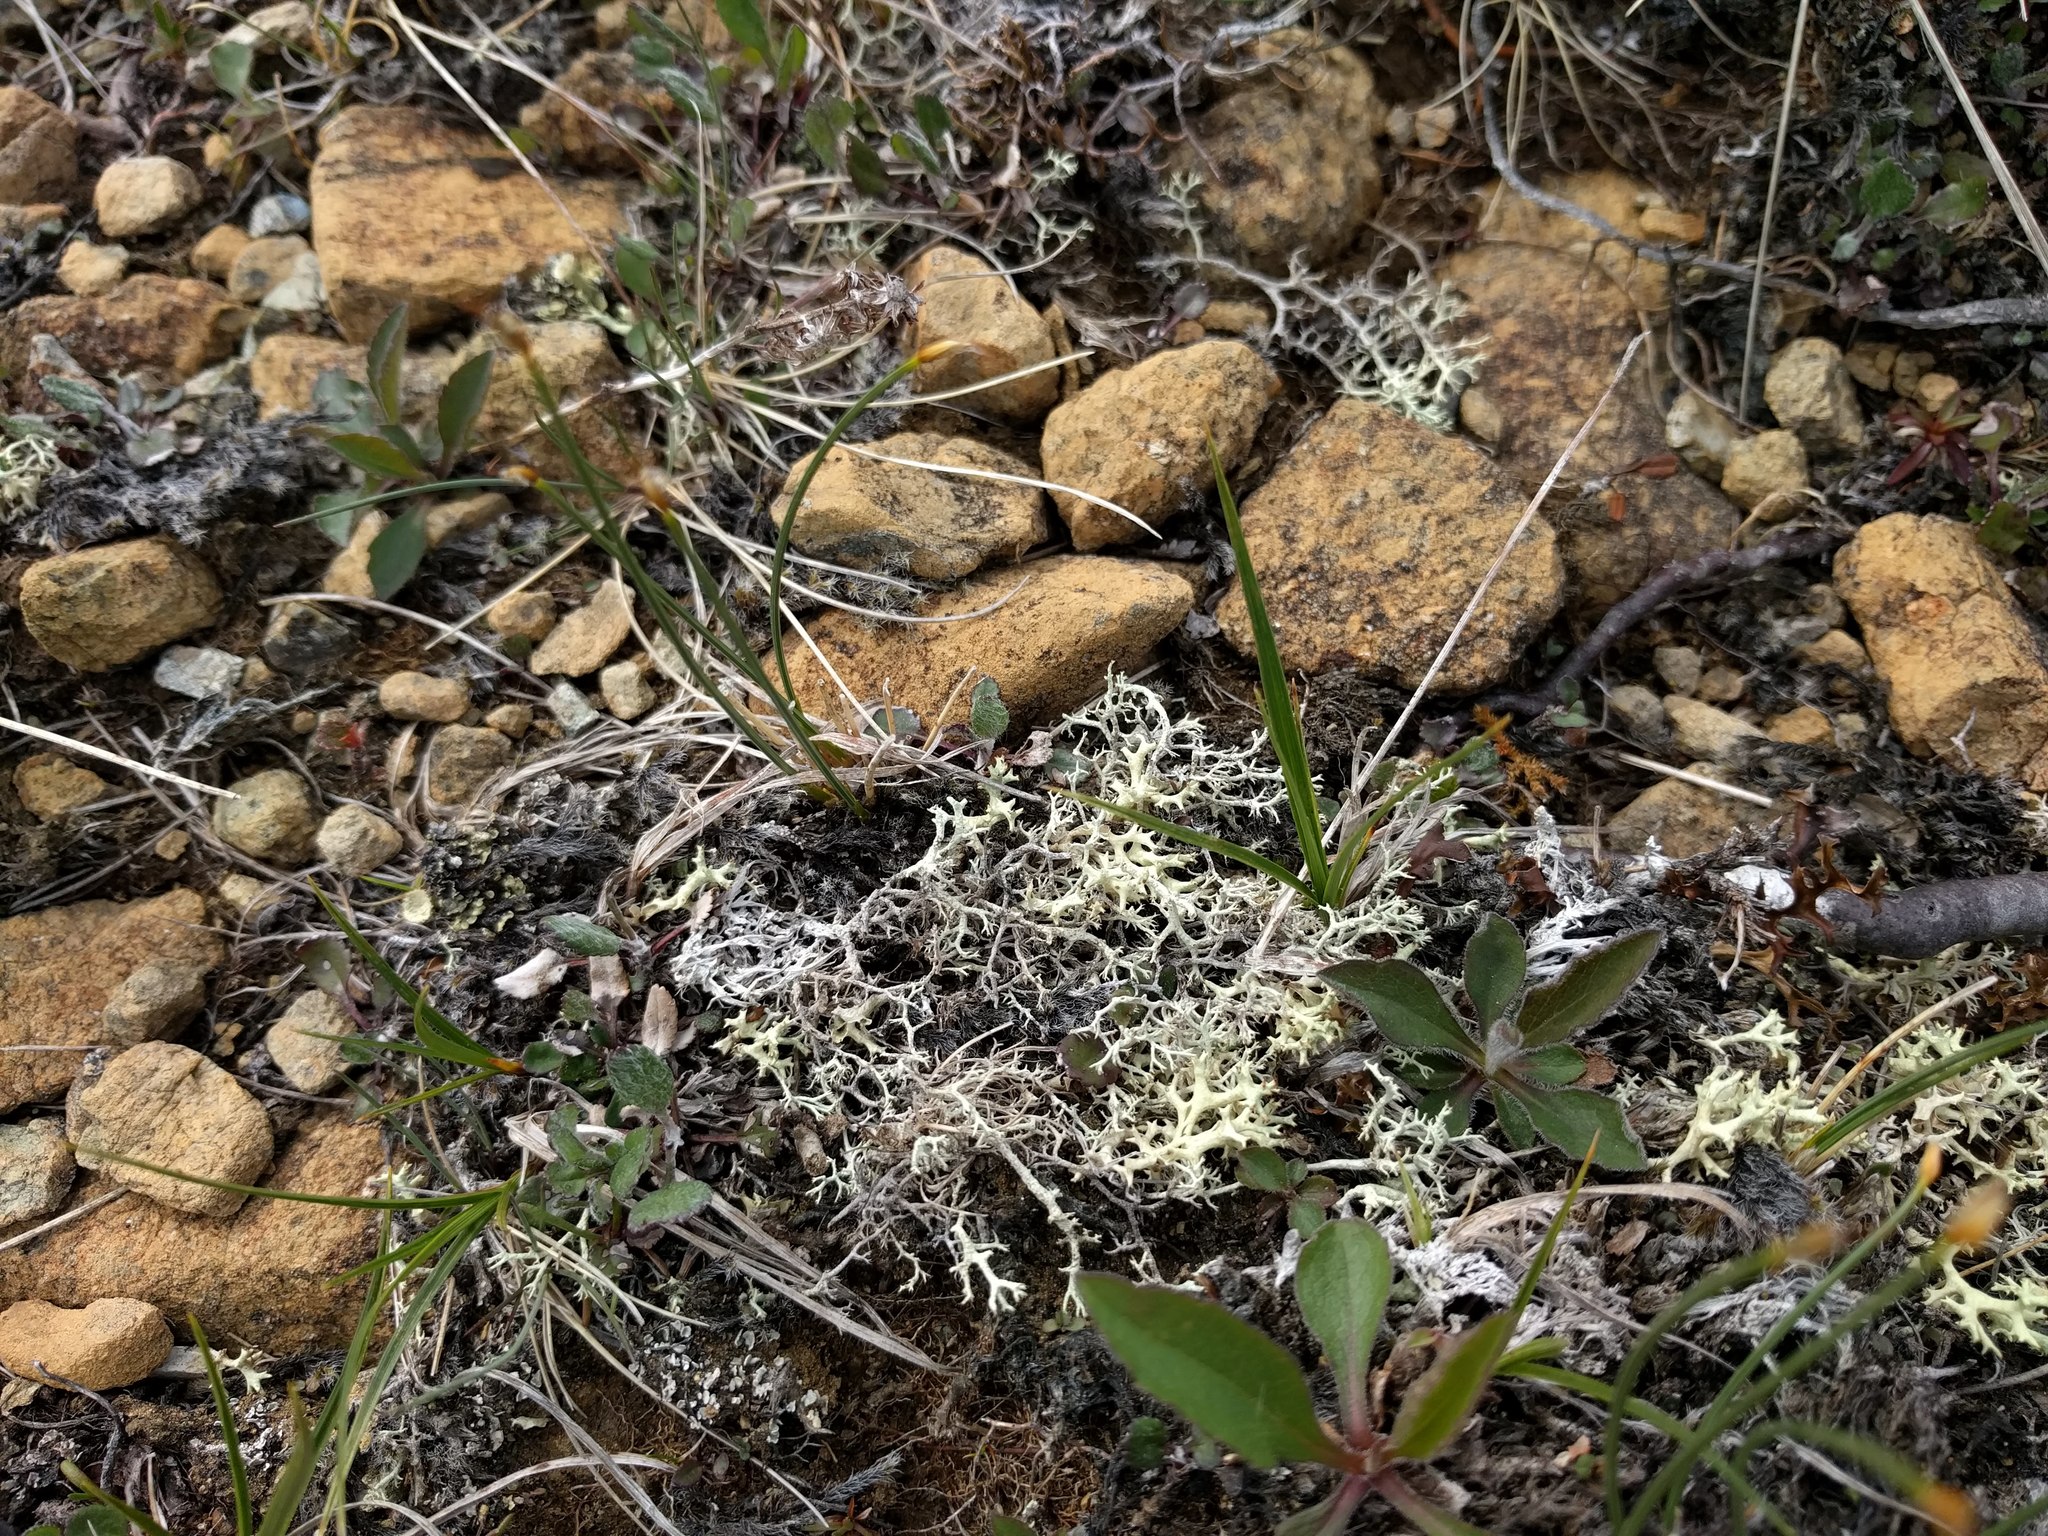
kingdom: Fungi
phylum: Ascomycota
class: Lecanoromycetes
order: Lecanorales
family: Cladoniaceae
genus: Cladonia
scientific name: Cladonia stygia
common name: Black-footed reindeer lichen
